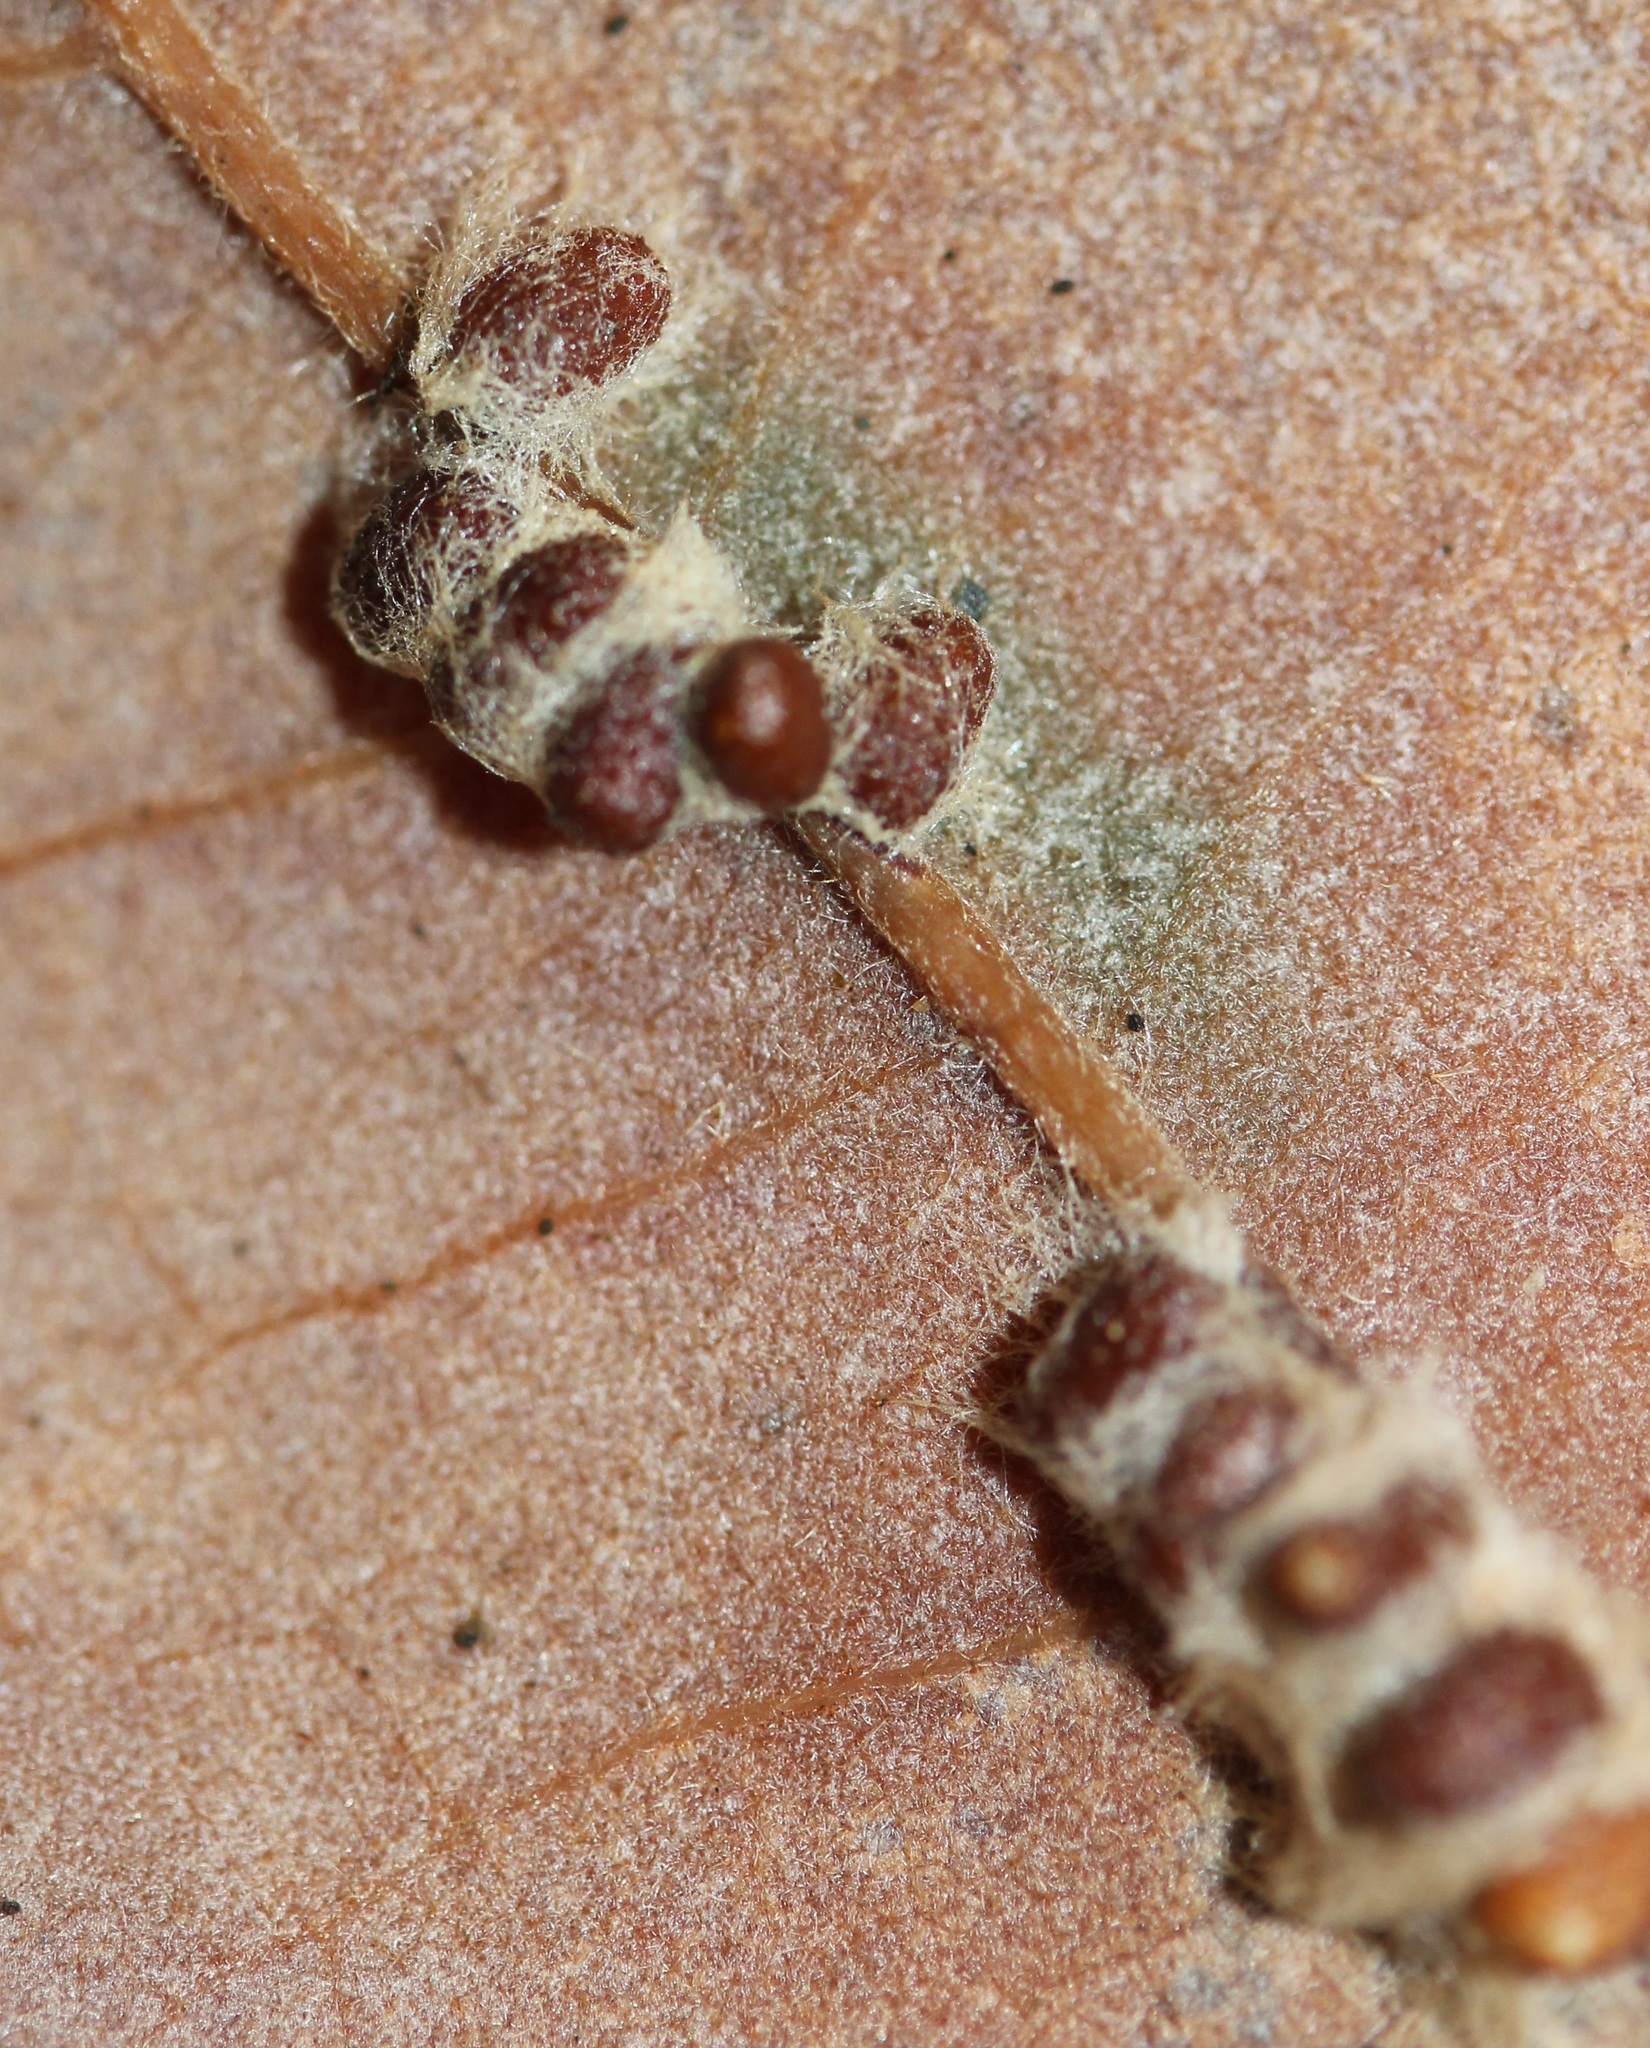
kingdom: Animalia
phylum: Arthropoda
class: Insecta
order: Hymenoptera
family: Cynipidae
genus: Andricus
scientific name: Andricus Druon ignotum
